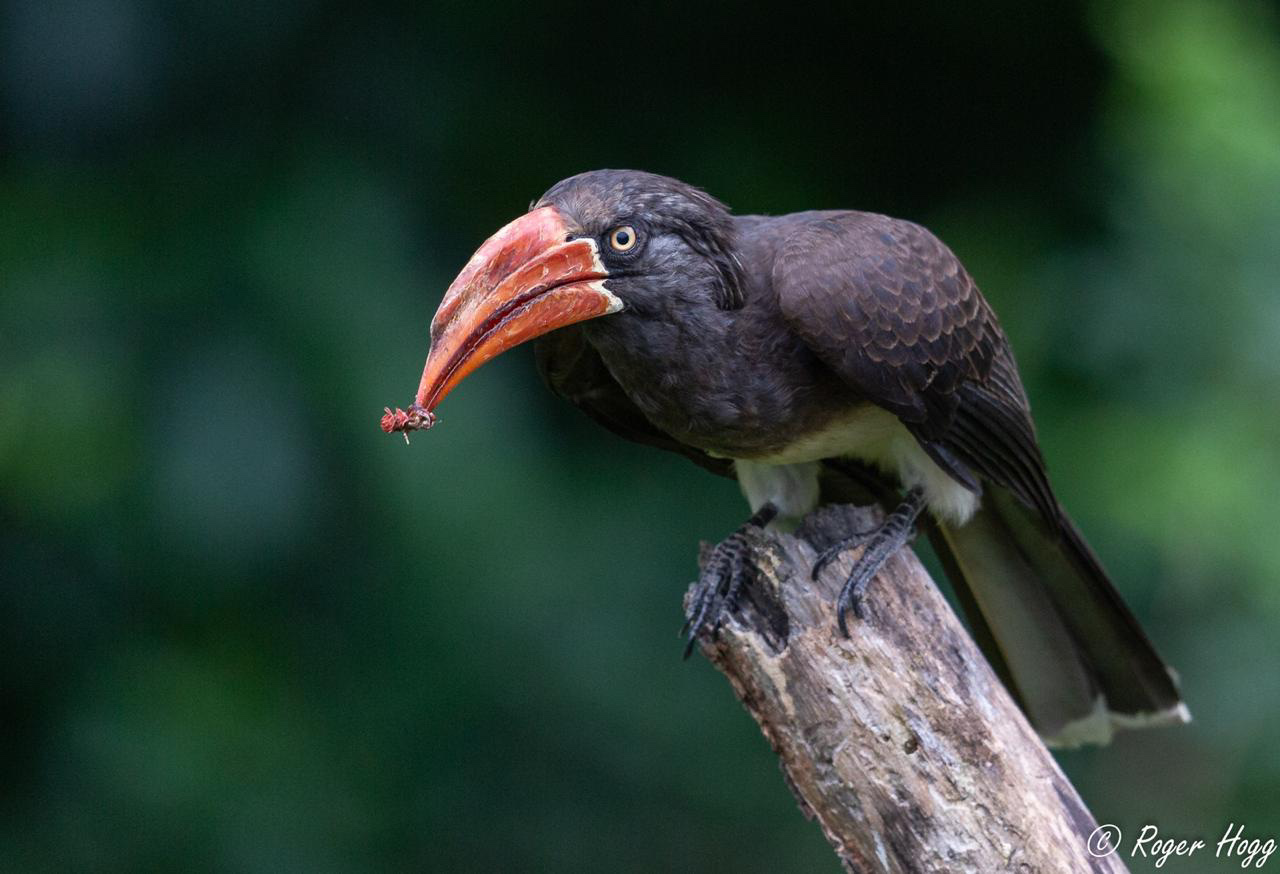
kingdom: Animalia
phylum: Chordata
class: Aves
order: Bucerotiformes
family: Bucerotidae
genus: Lophoceros
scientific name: Lophoceros alboterminatus
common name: Crowned hornbill
